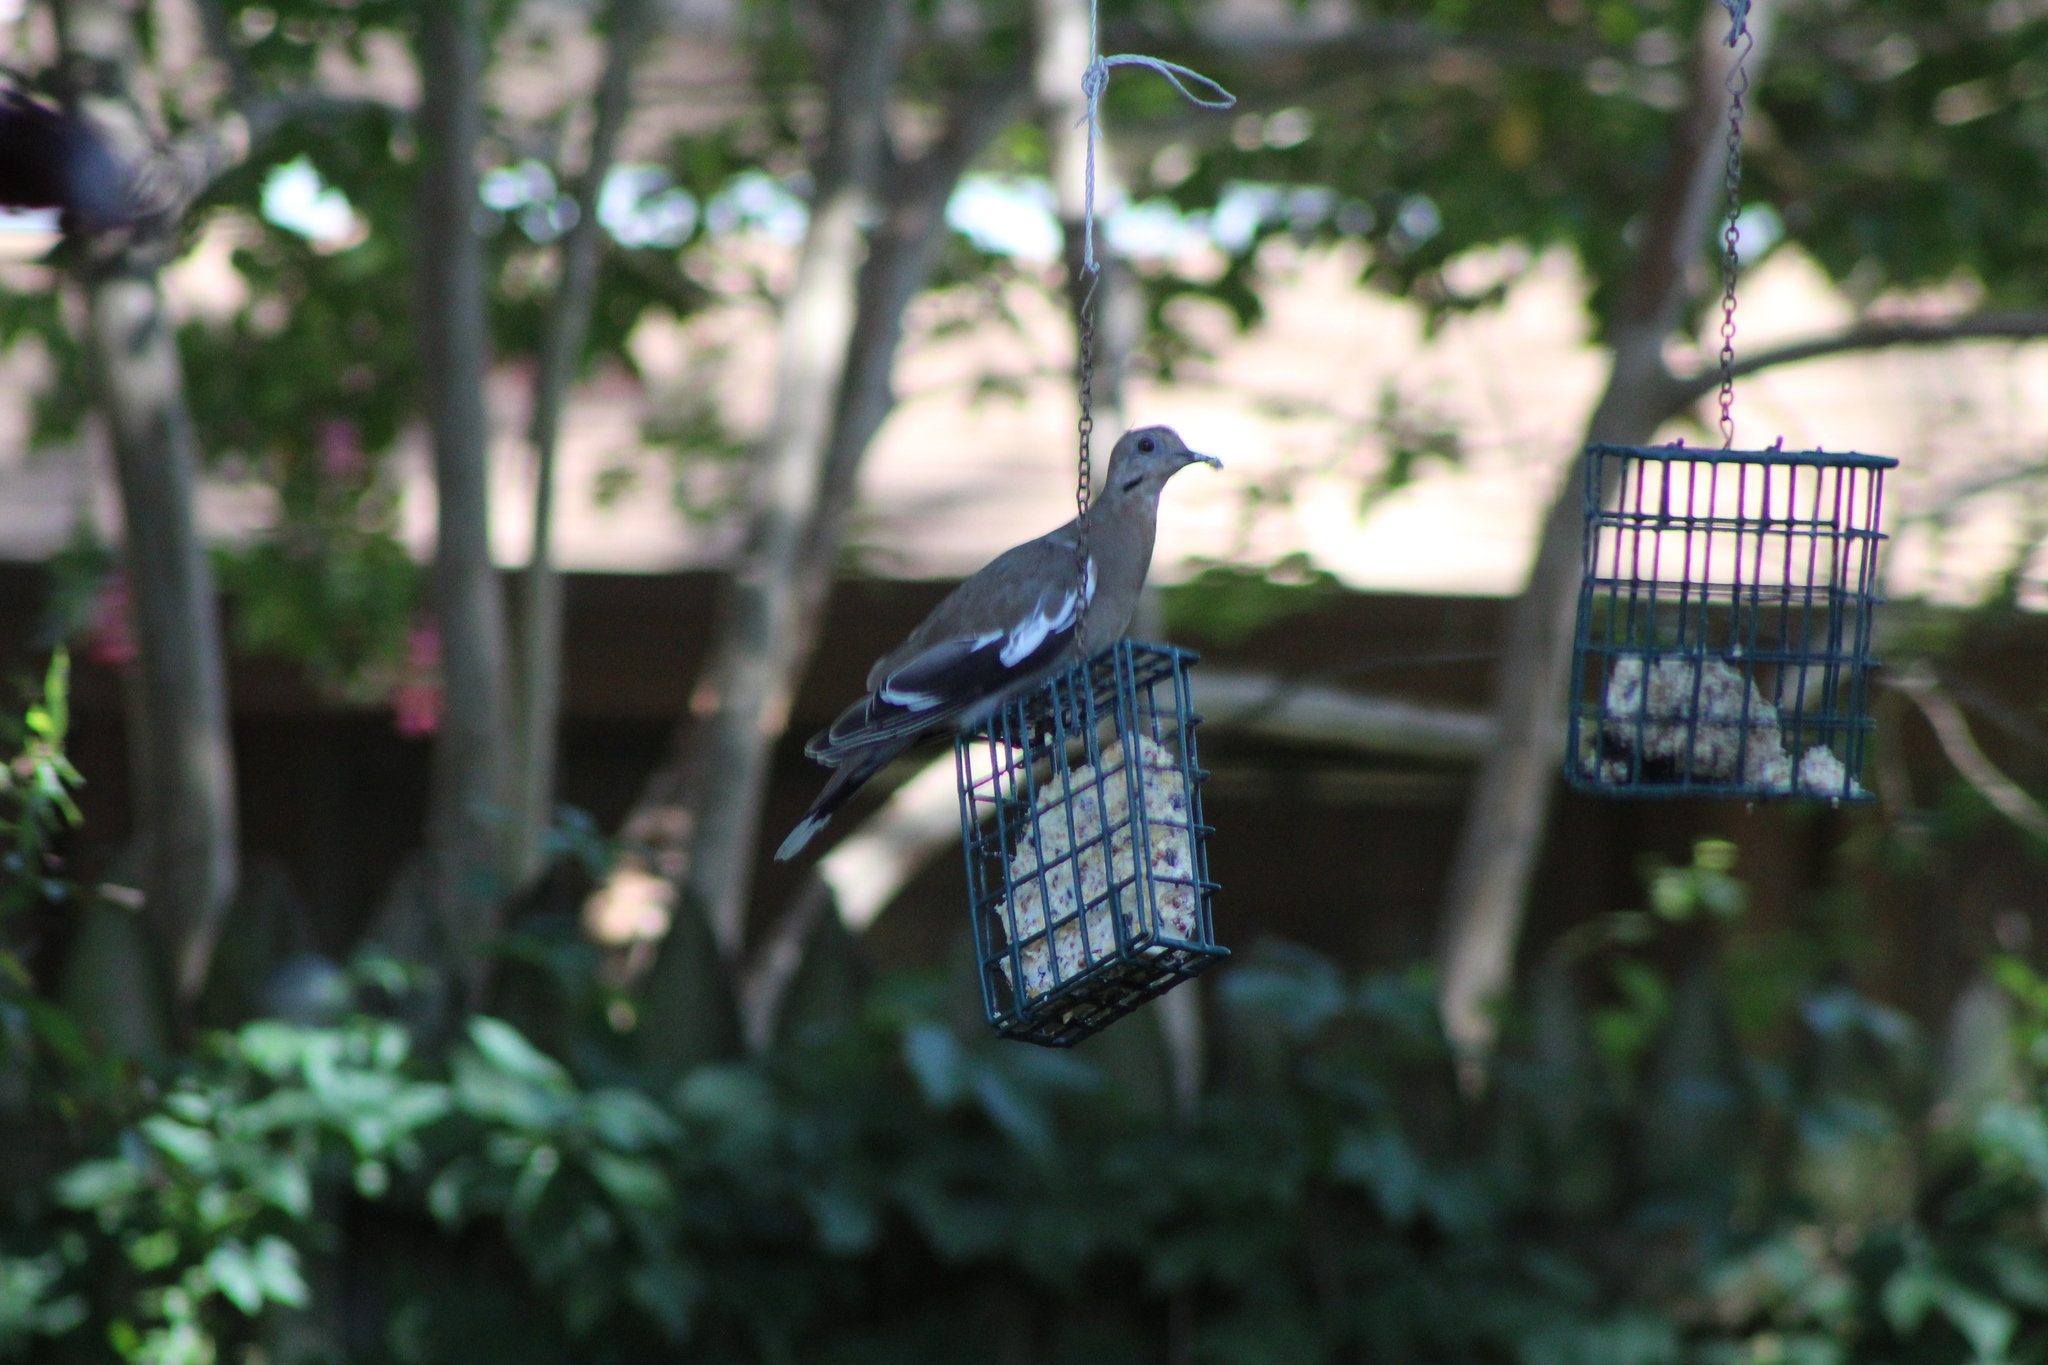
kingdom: Animalia
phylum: Chordata
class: Aves
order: Columbiformes
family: Columbidae
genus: Zenaida
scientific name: Zenaida asiatica
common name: White-winged dove
